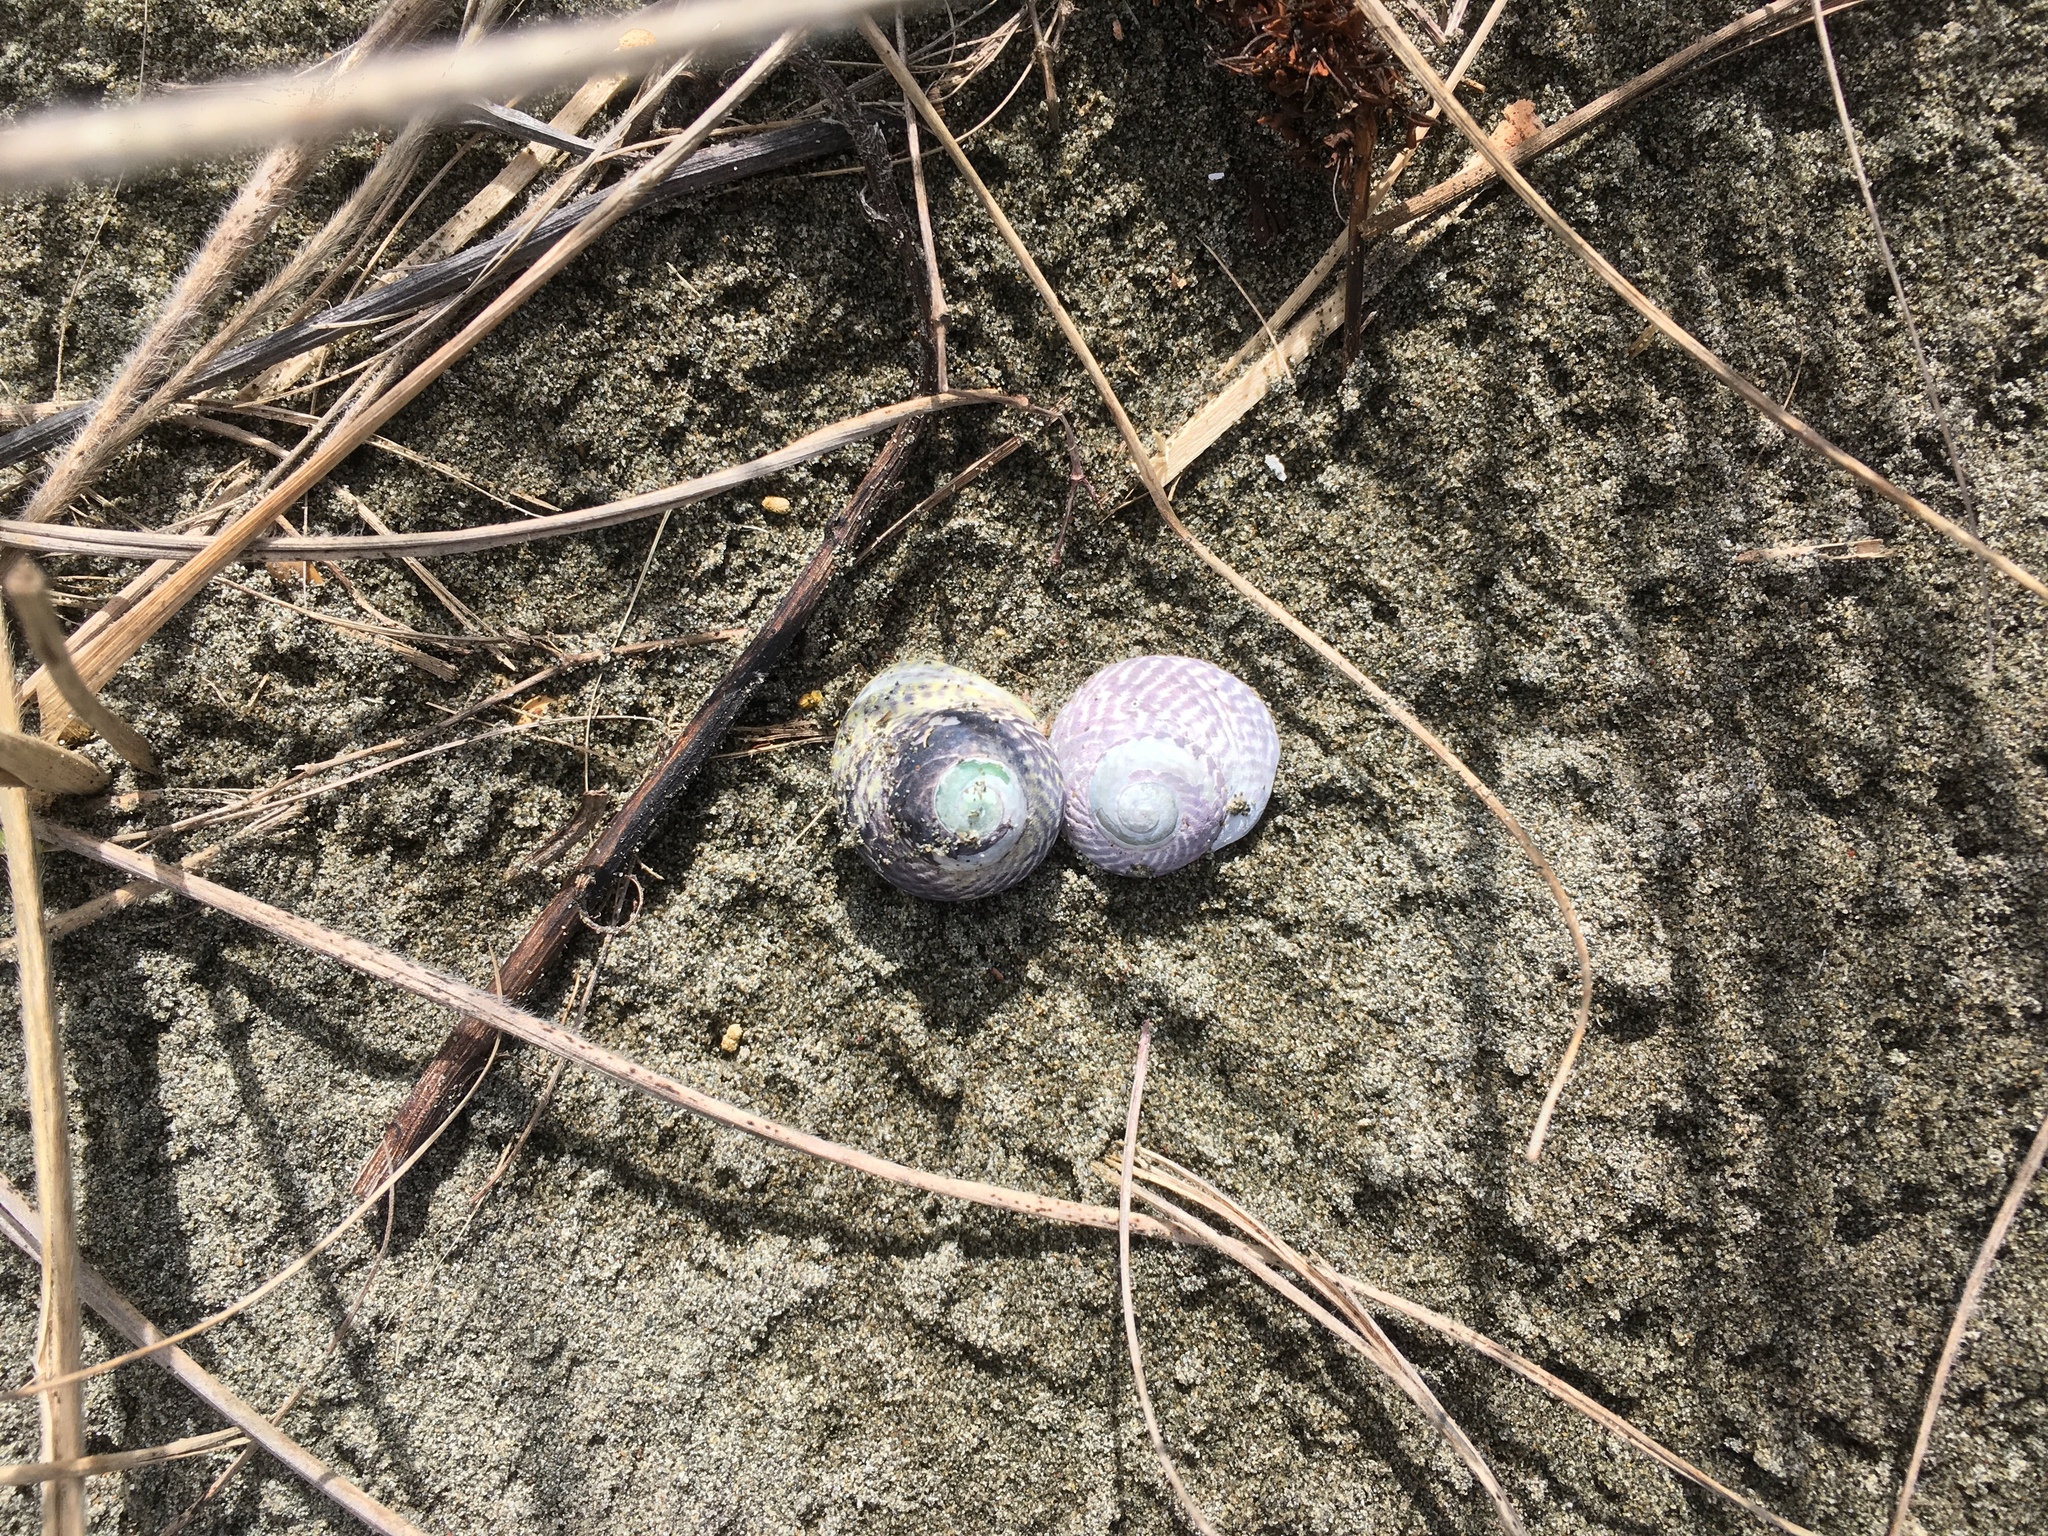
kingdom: Animalia
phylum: Mollusca
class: Gastropoda
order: Trochida
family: Trochidae
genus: Diloma
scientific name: Diloma subrostratum
